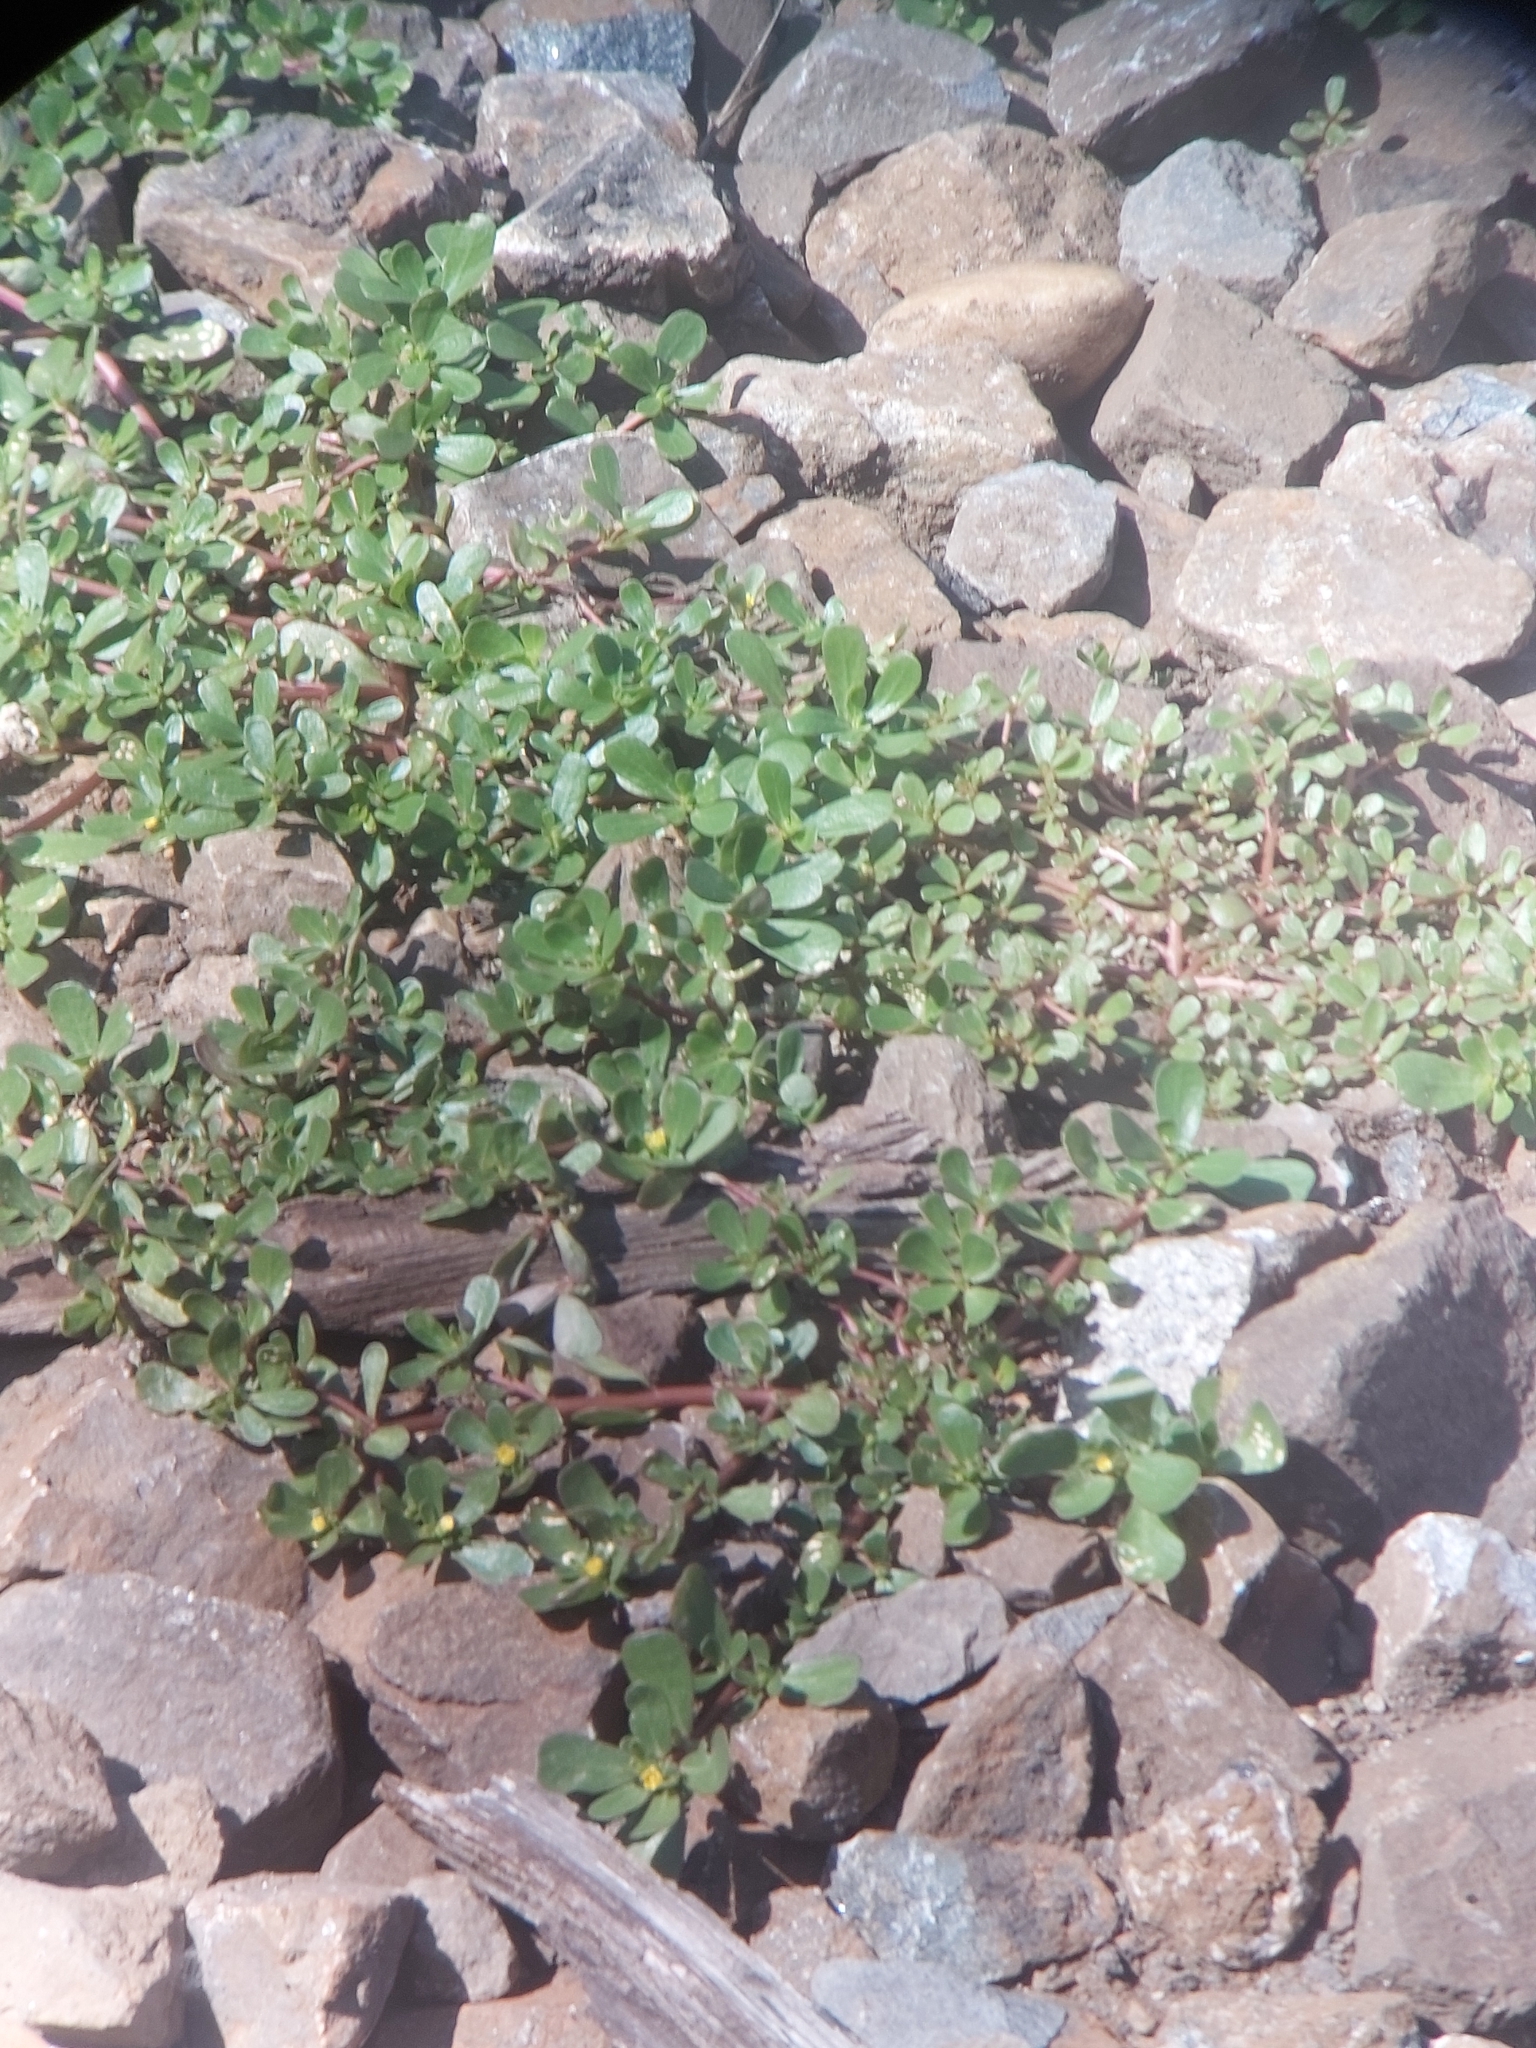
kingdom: Plantae
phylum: Tracheophyta
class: Magnoliopsida
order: Caryophyllales
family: Portulacaceae
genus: Portulaca
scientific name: Portulaca oleracea
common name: Common purslane
